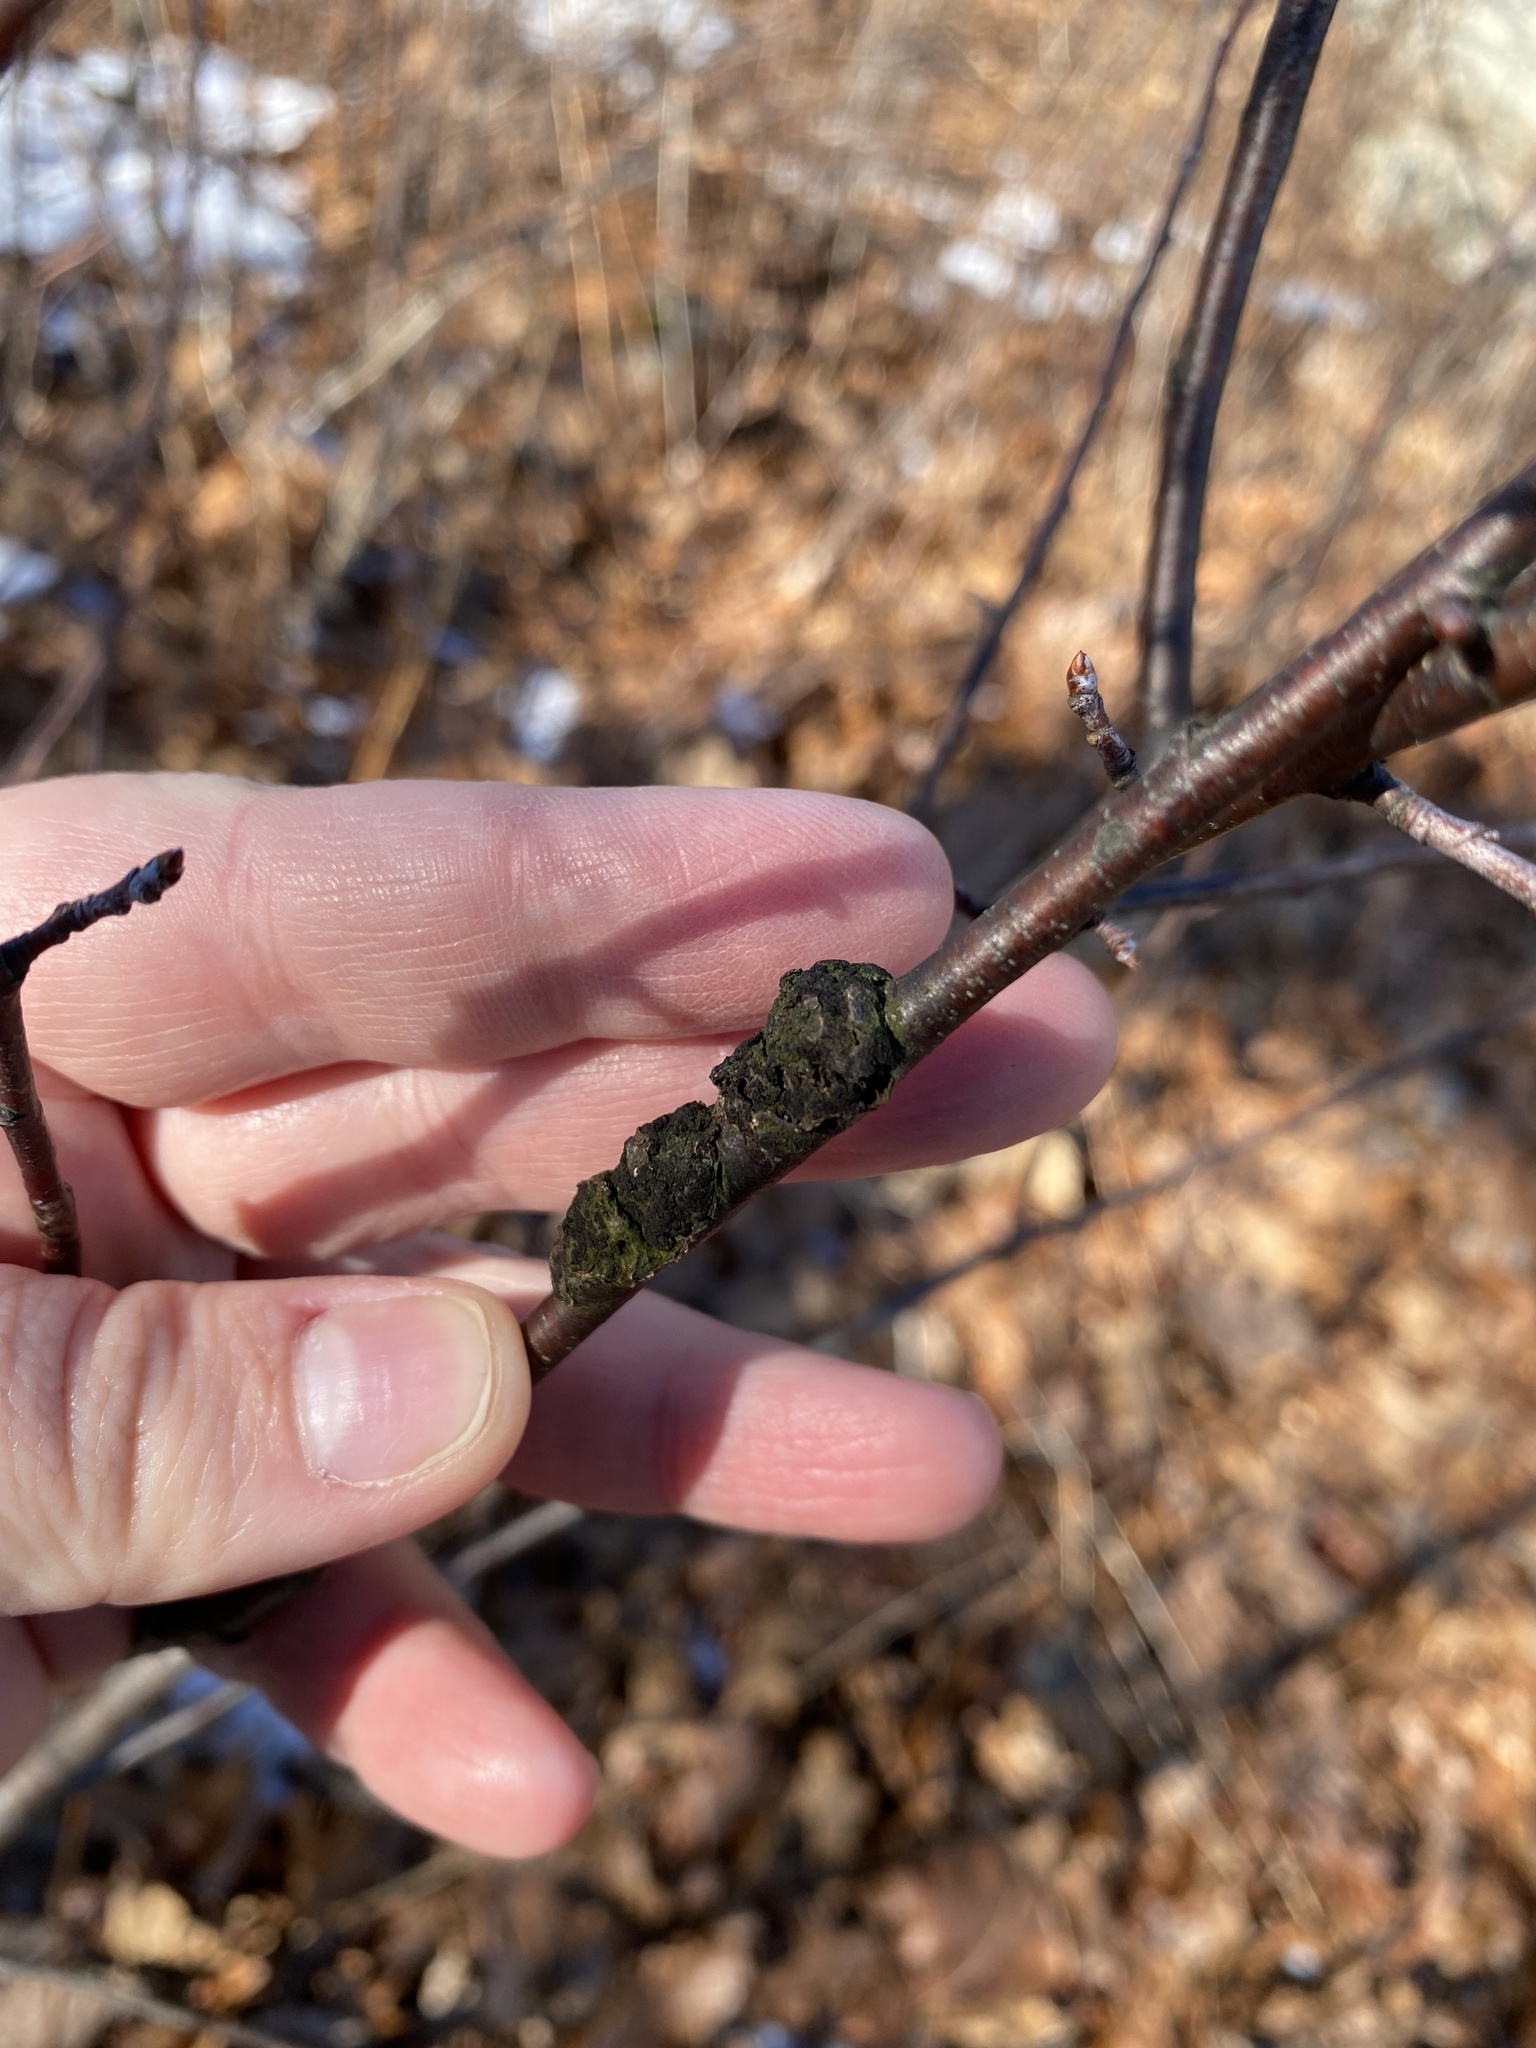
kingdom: Fungi
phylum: Ascomycota
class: Dothideomycetes
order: Venturiales
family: Venturiaceae
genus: Apiosporina
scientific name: Apiosporina morbosa
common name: Black knot
